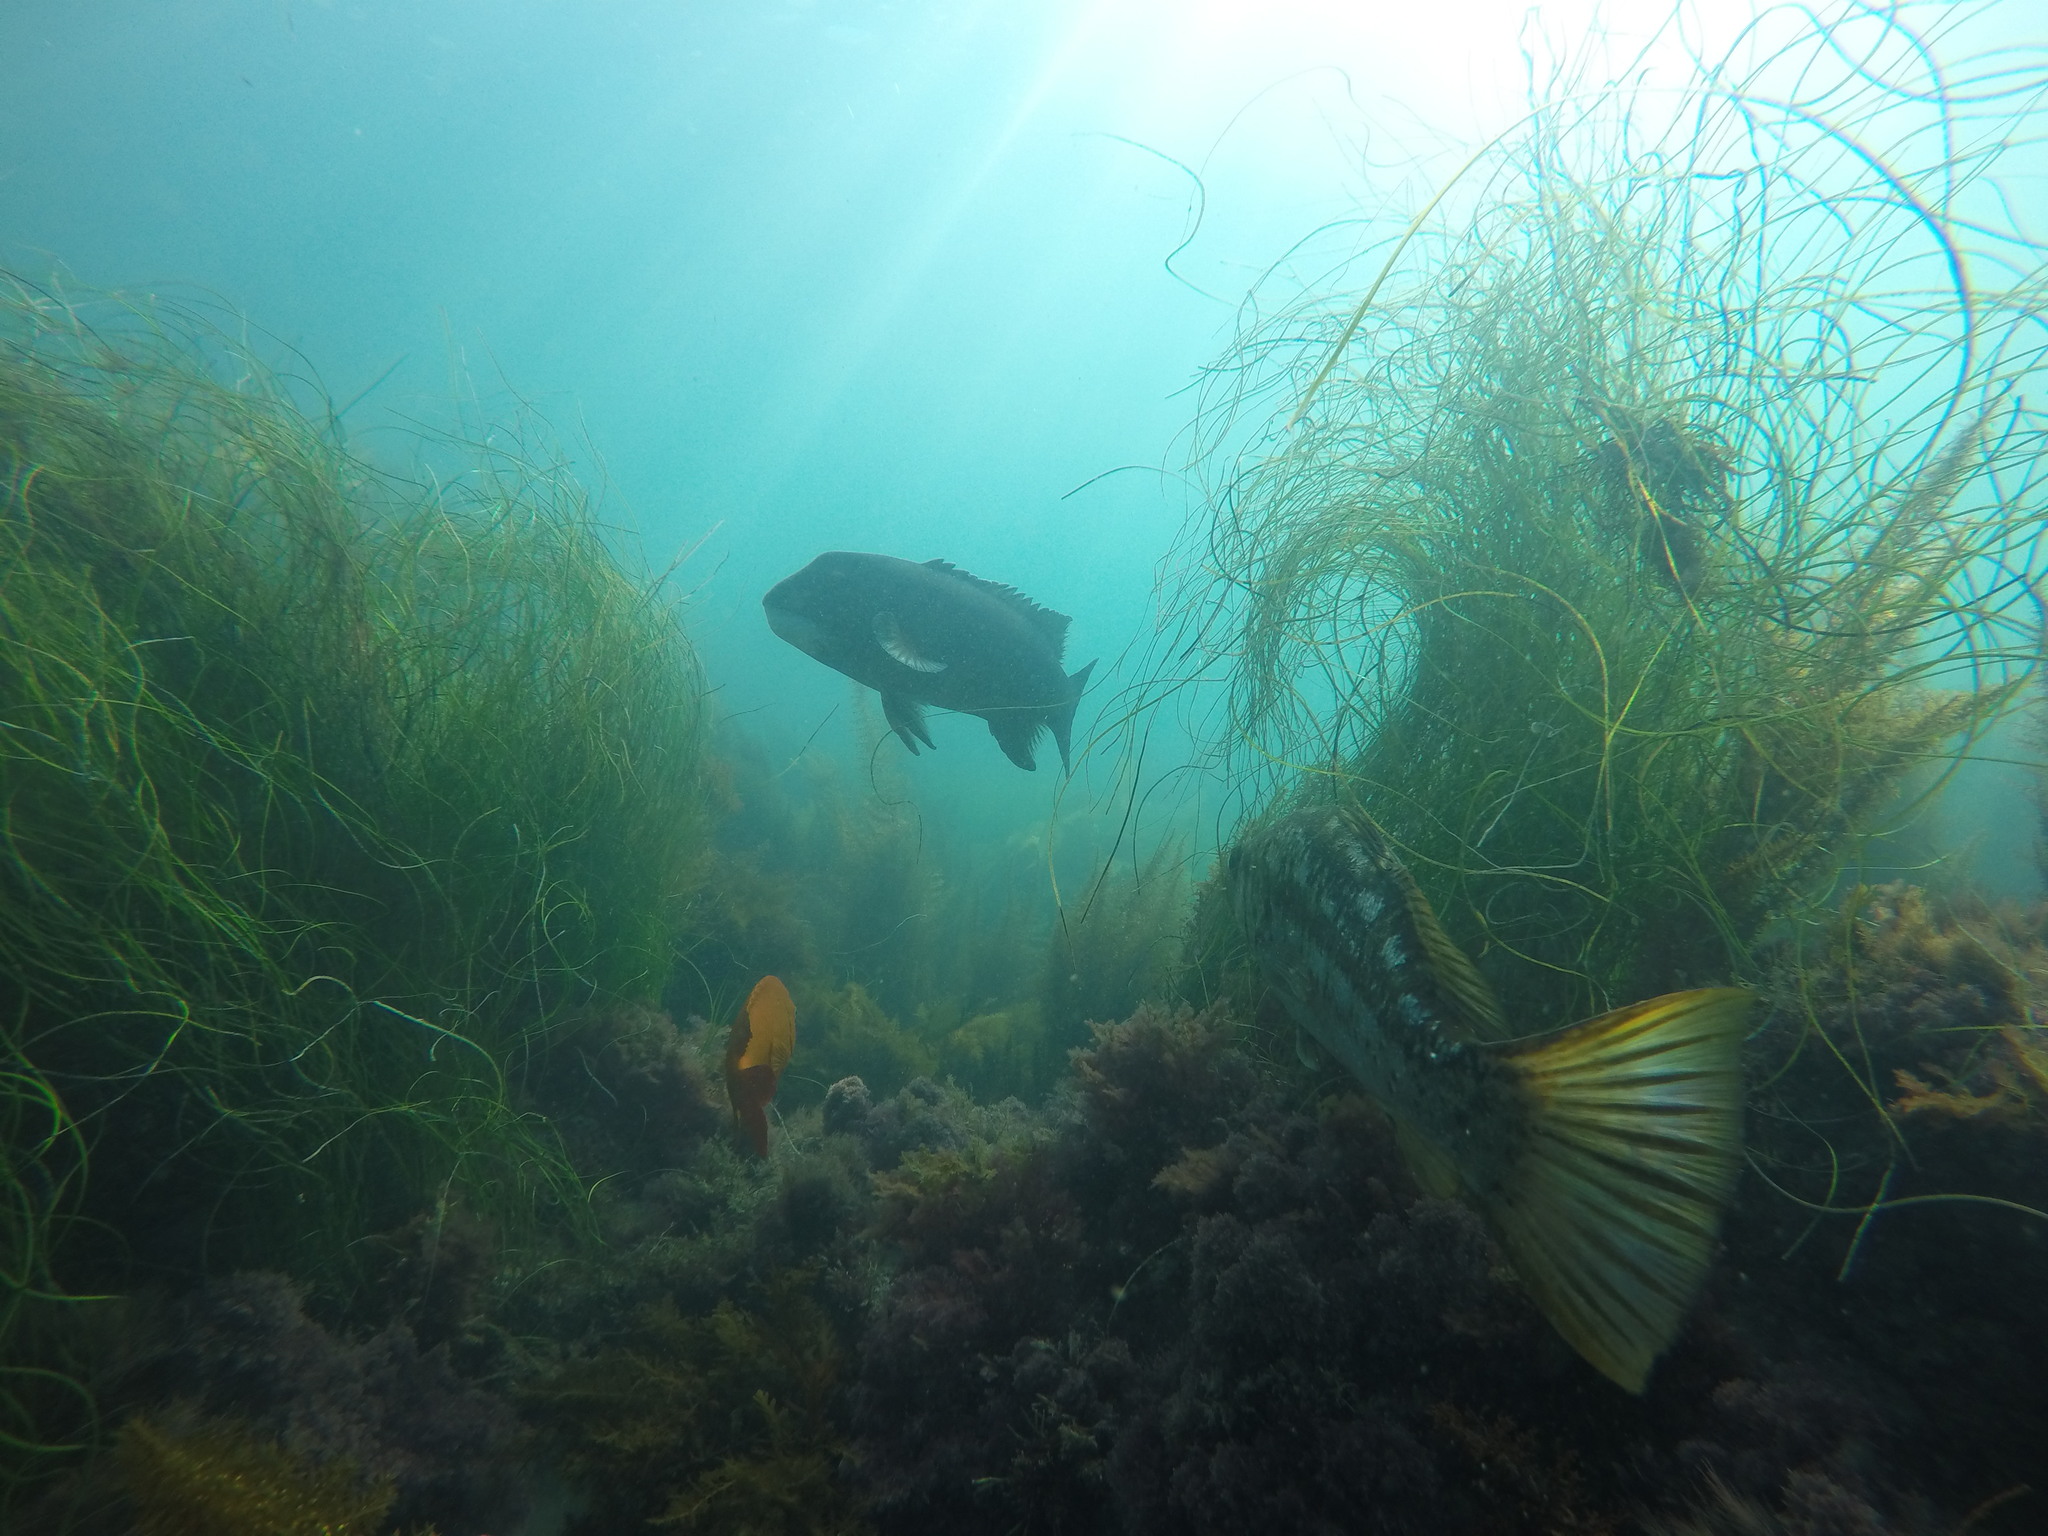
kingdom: Animalia
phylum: Chordata
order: Perciformes
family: Labridae
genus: Semicossyphus
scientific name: Semicossyphus pulcher
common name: California sheephead
